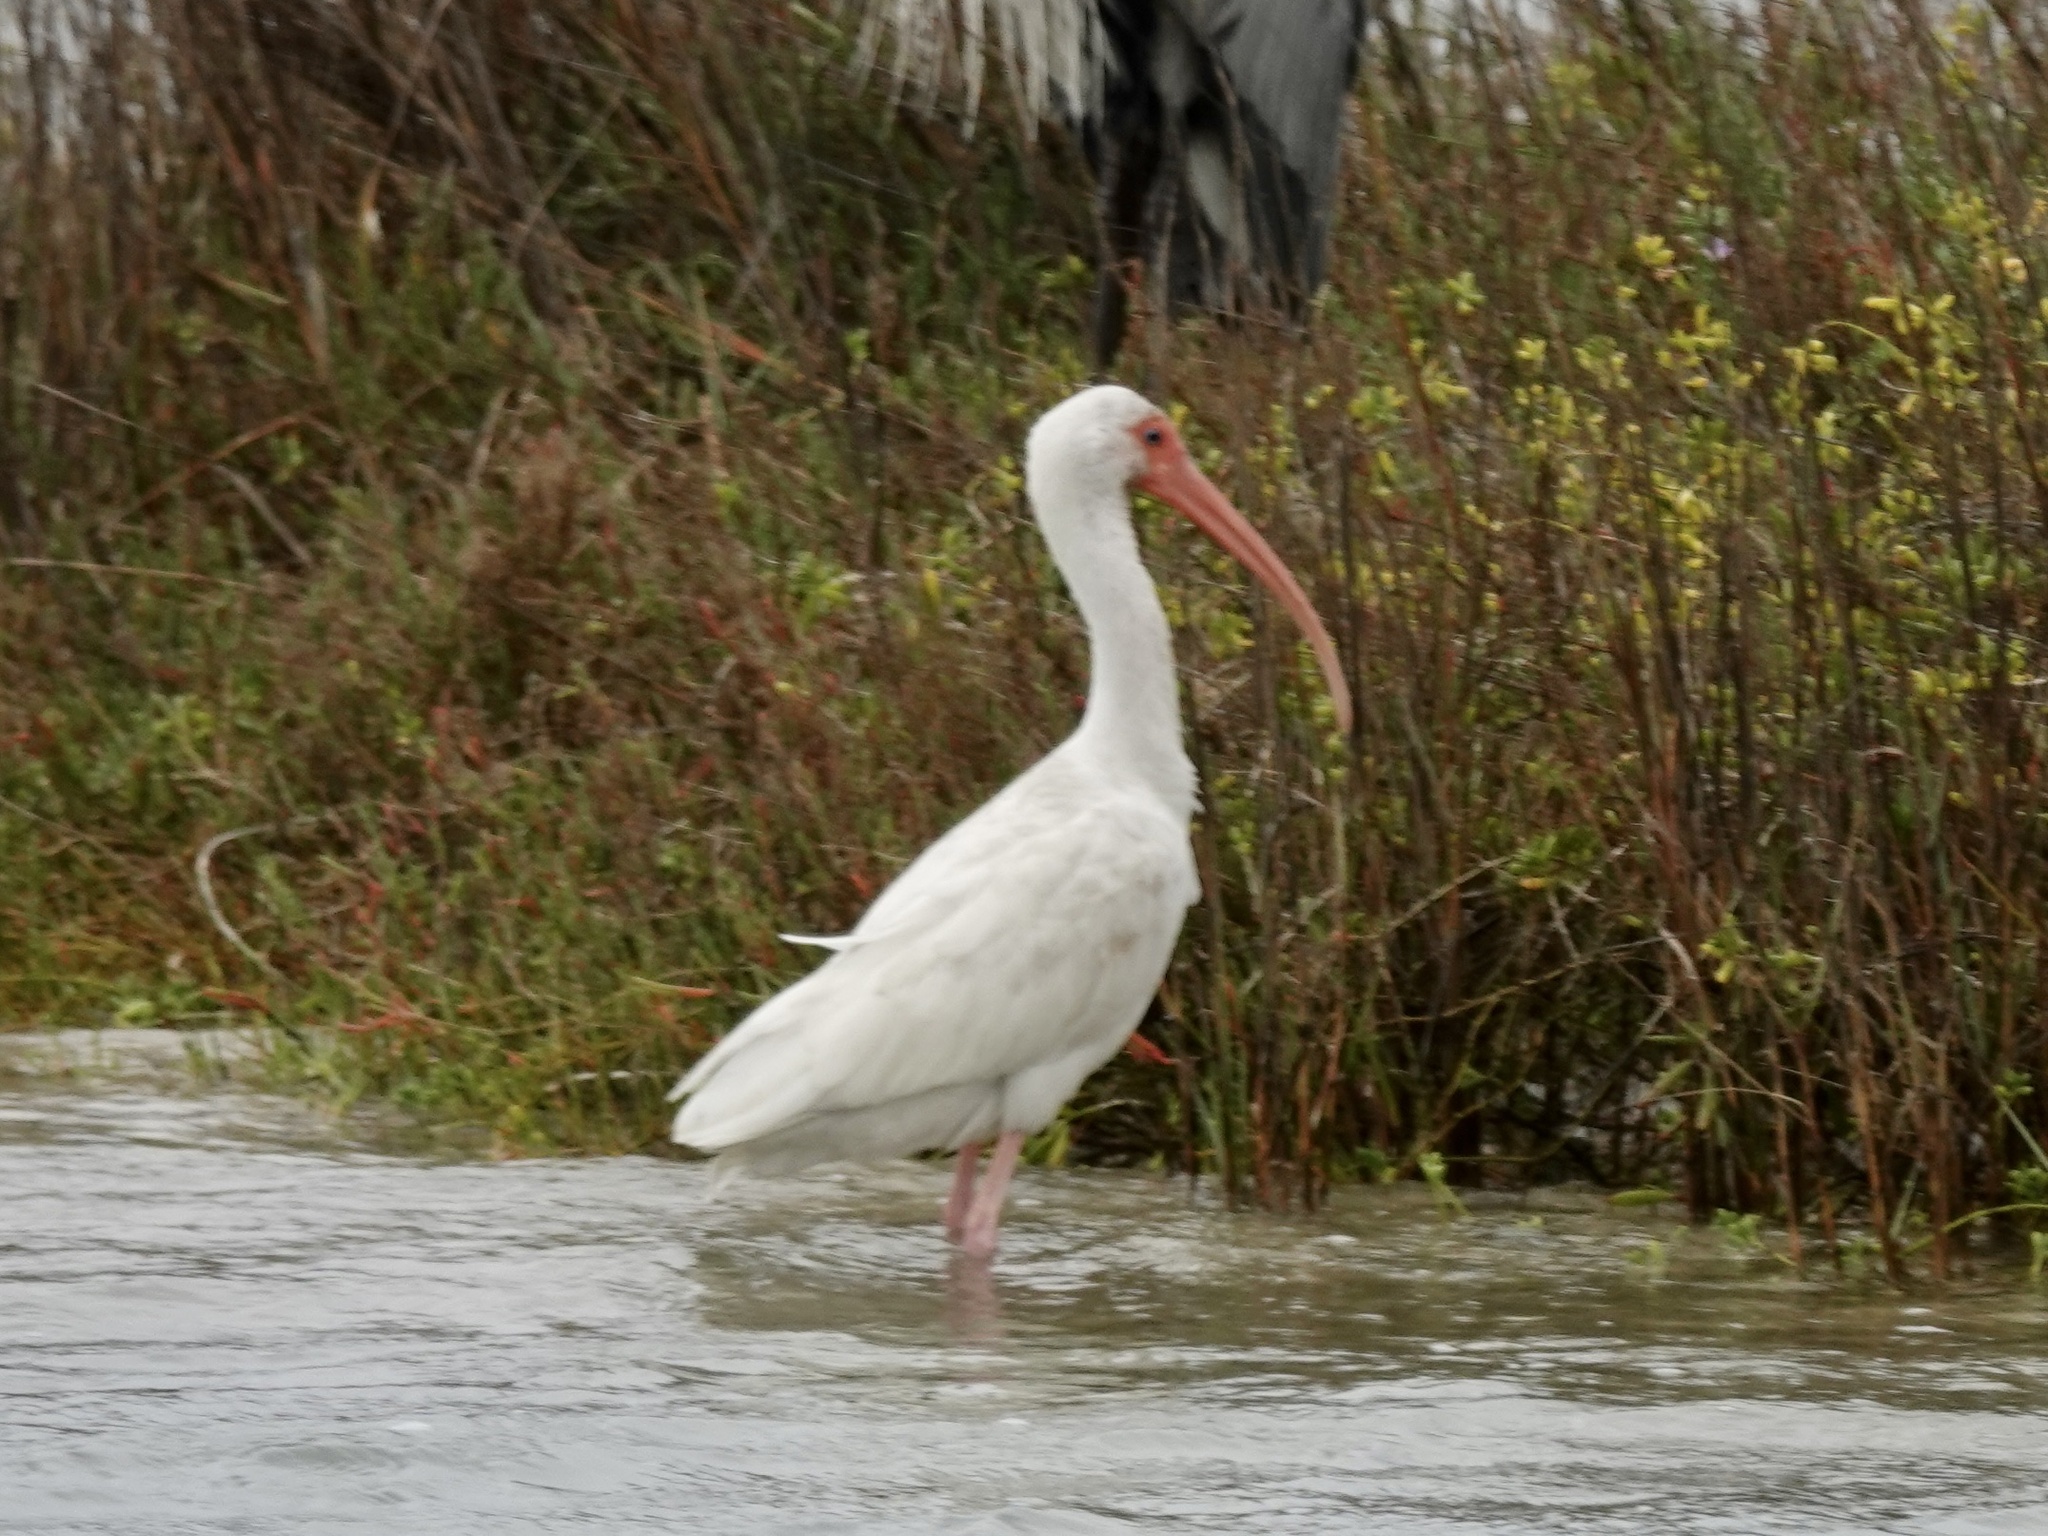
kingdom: Animalia
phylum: Chordata
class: Aves
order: Pelecaniformes
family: Threskiornithidae
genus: Eudocimus
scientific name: Eudocimus albus
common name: White ibis
